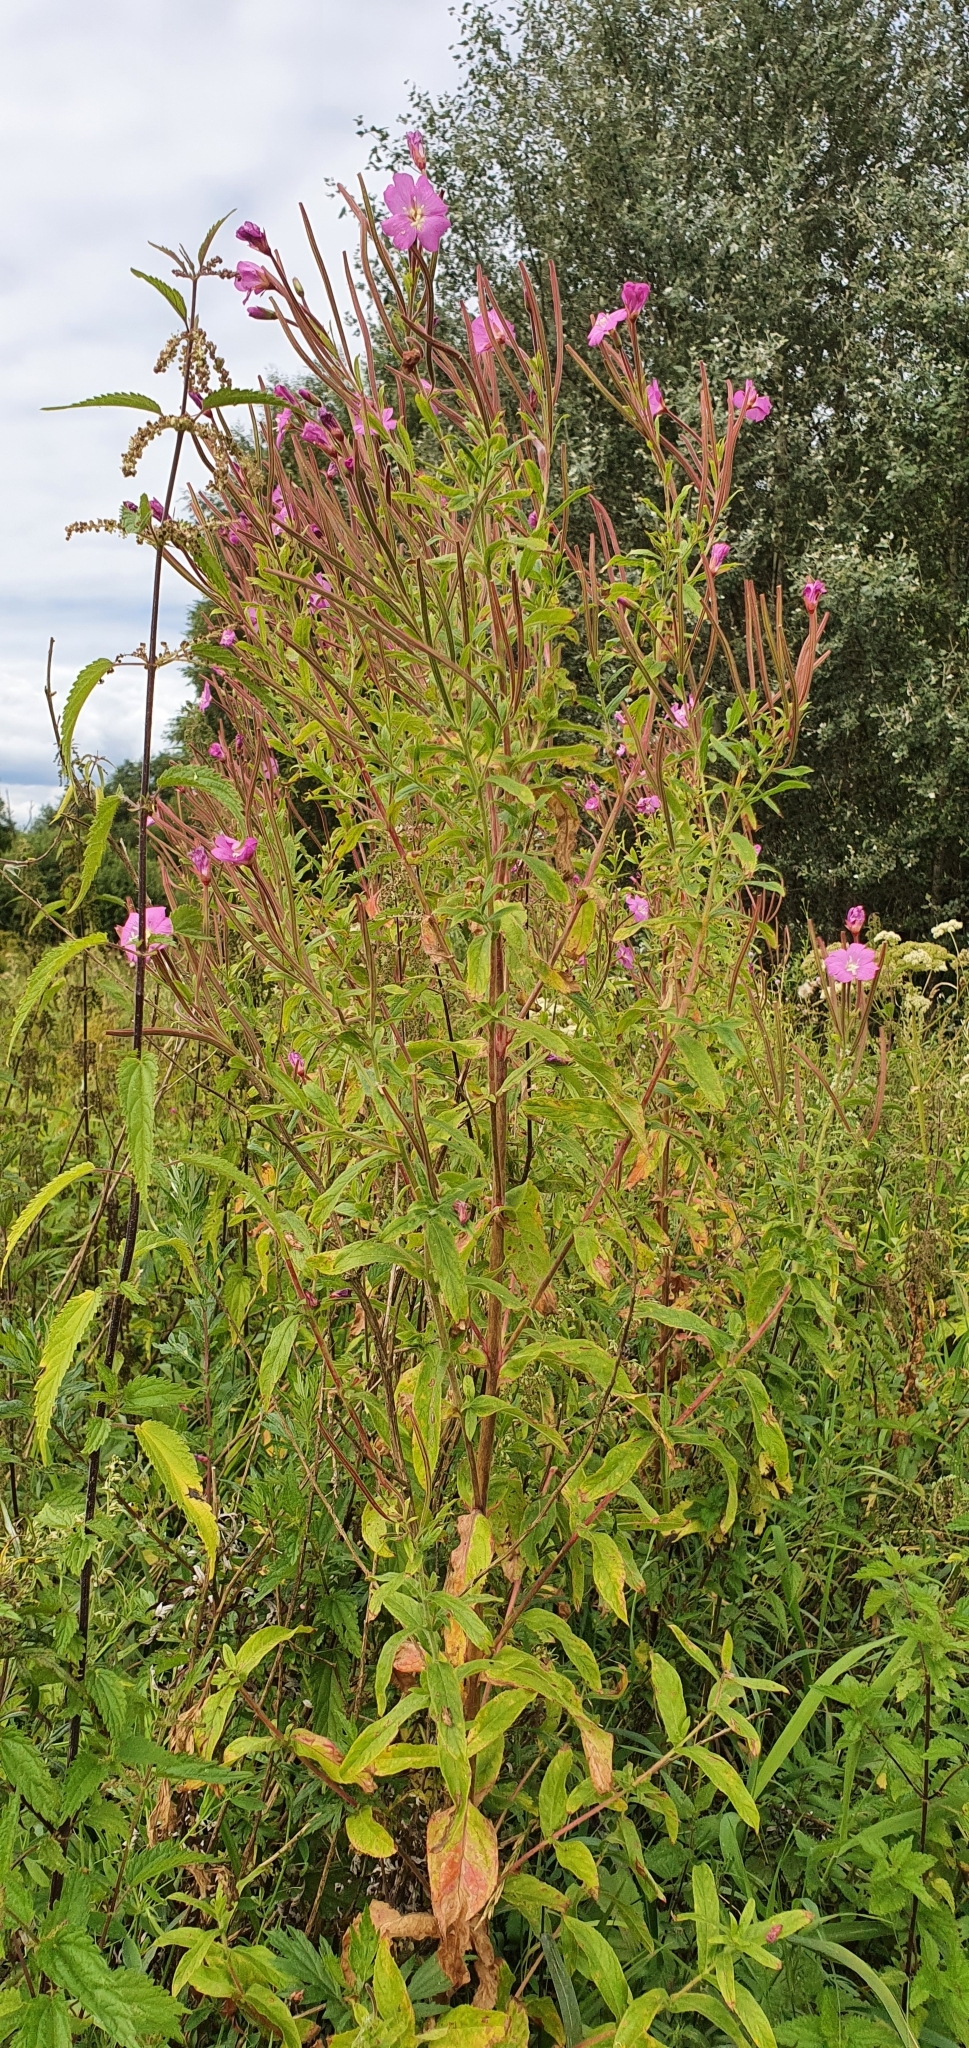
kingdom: Plantae
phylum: Tracheophyta
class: Magnoliopsida
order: Myrtales
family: Onagraceae
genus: Epilobium
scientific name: Epilobium hirsutum
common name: Great willowherb
